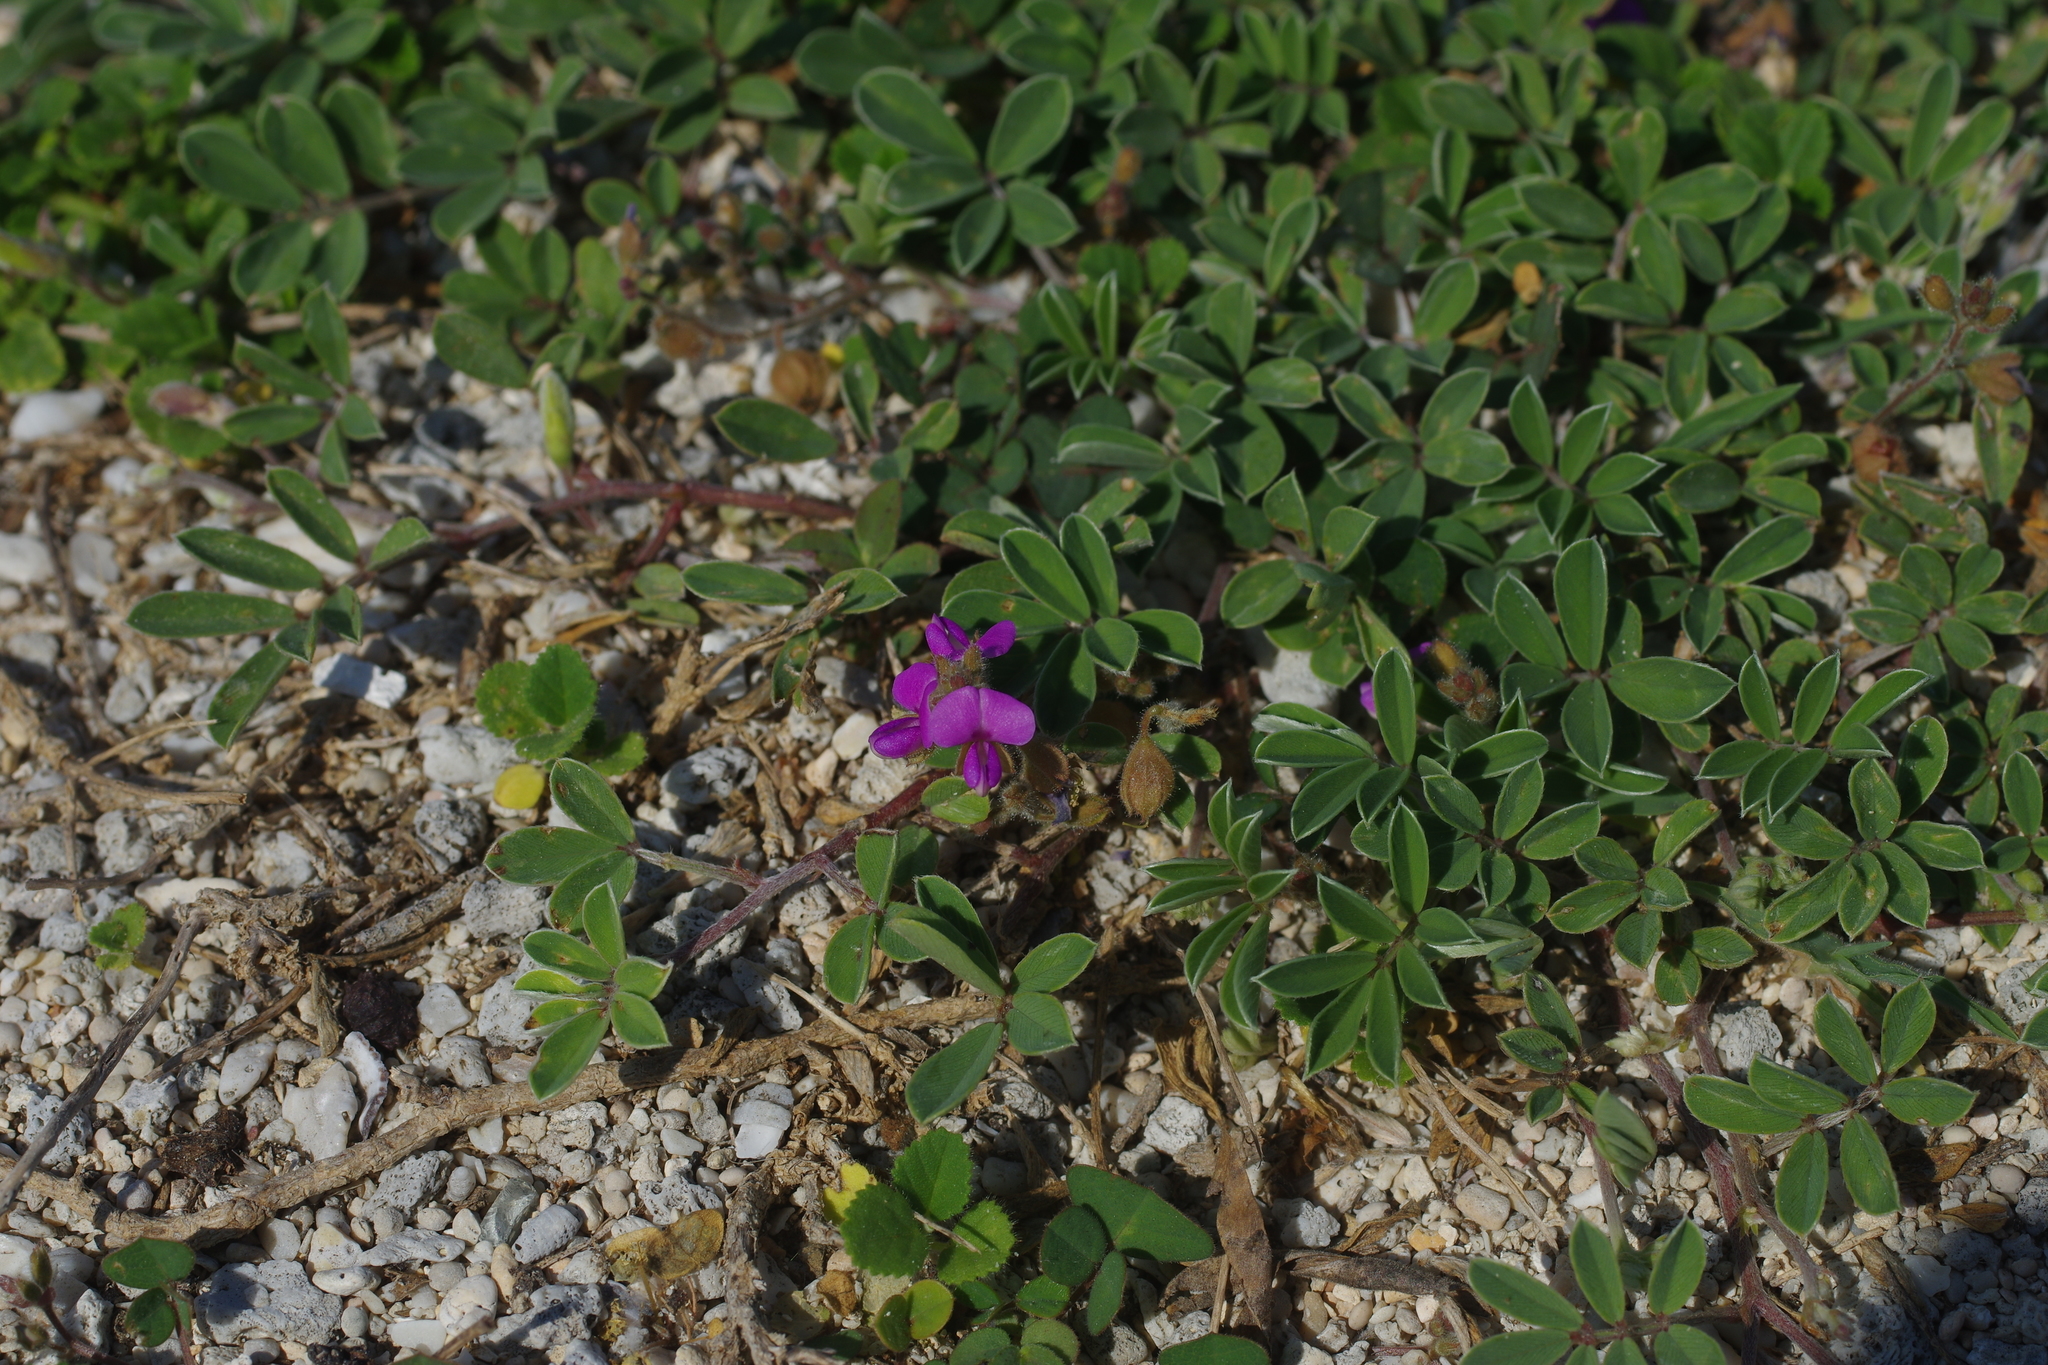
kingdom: Plantae
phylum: Tracheophyta
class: Magnoliopsida
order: Fabales
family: Fabaceae
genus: Tephrosia
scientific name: Tephrosia obovata
